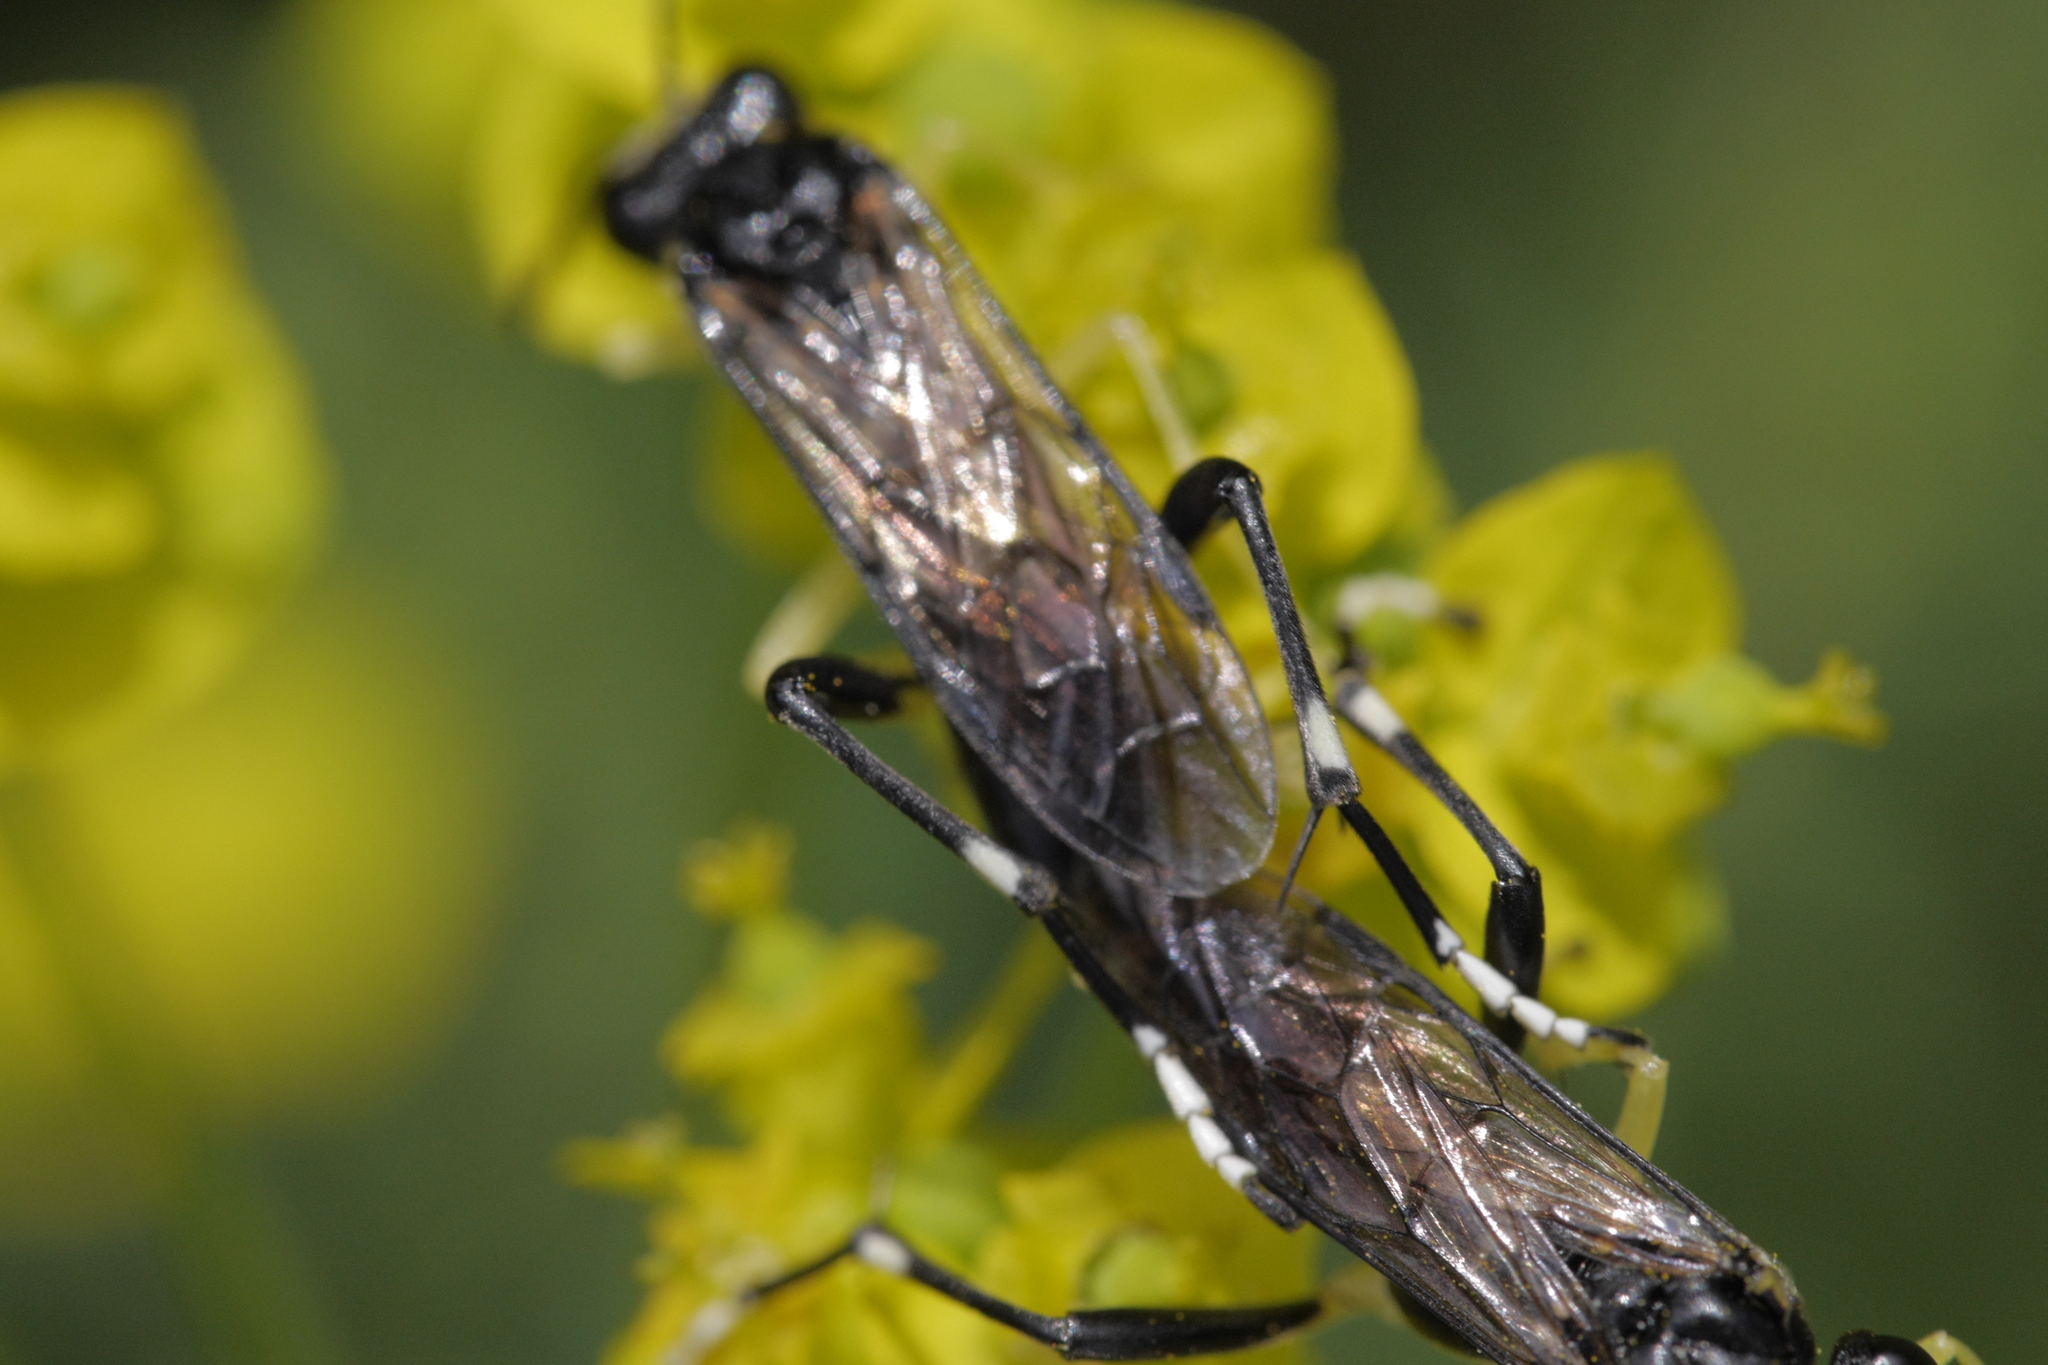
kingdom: Animalia
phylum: Arthropoda
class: Insecta
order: Hymenoptera
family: Tenthredinidae
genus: Macrophya
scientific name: Macrophya montana
